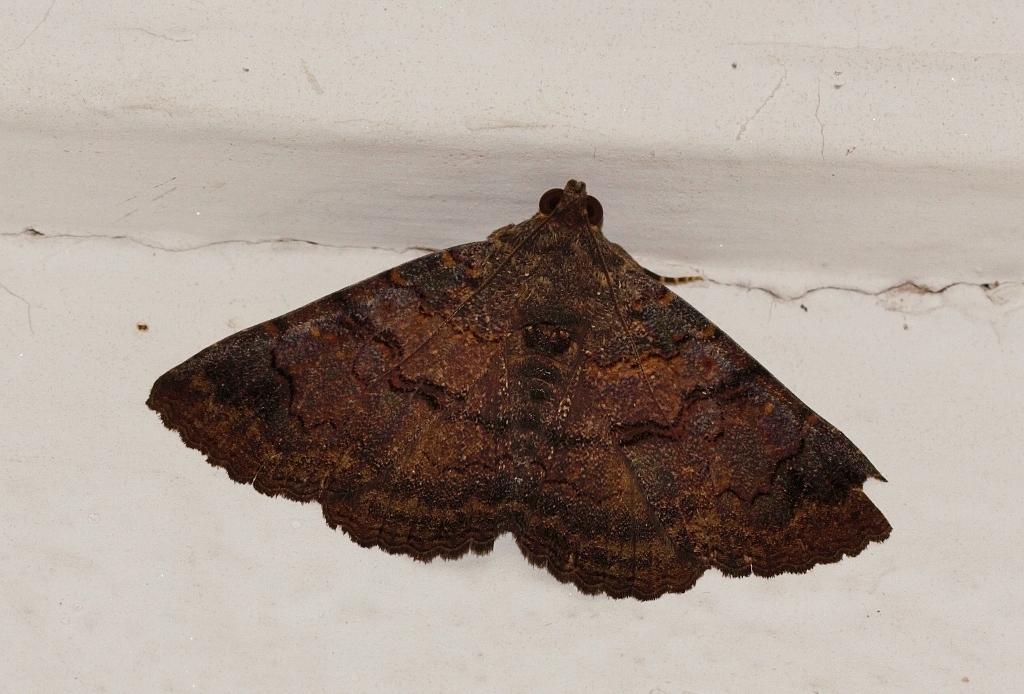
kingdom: Animalia
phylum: Arthropoda
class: Insecta
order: Lepidoptera
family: Erebidae
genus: Diatenes
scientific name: Diatenes chalybescens
